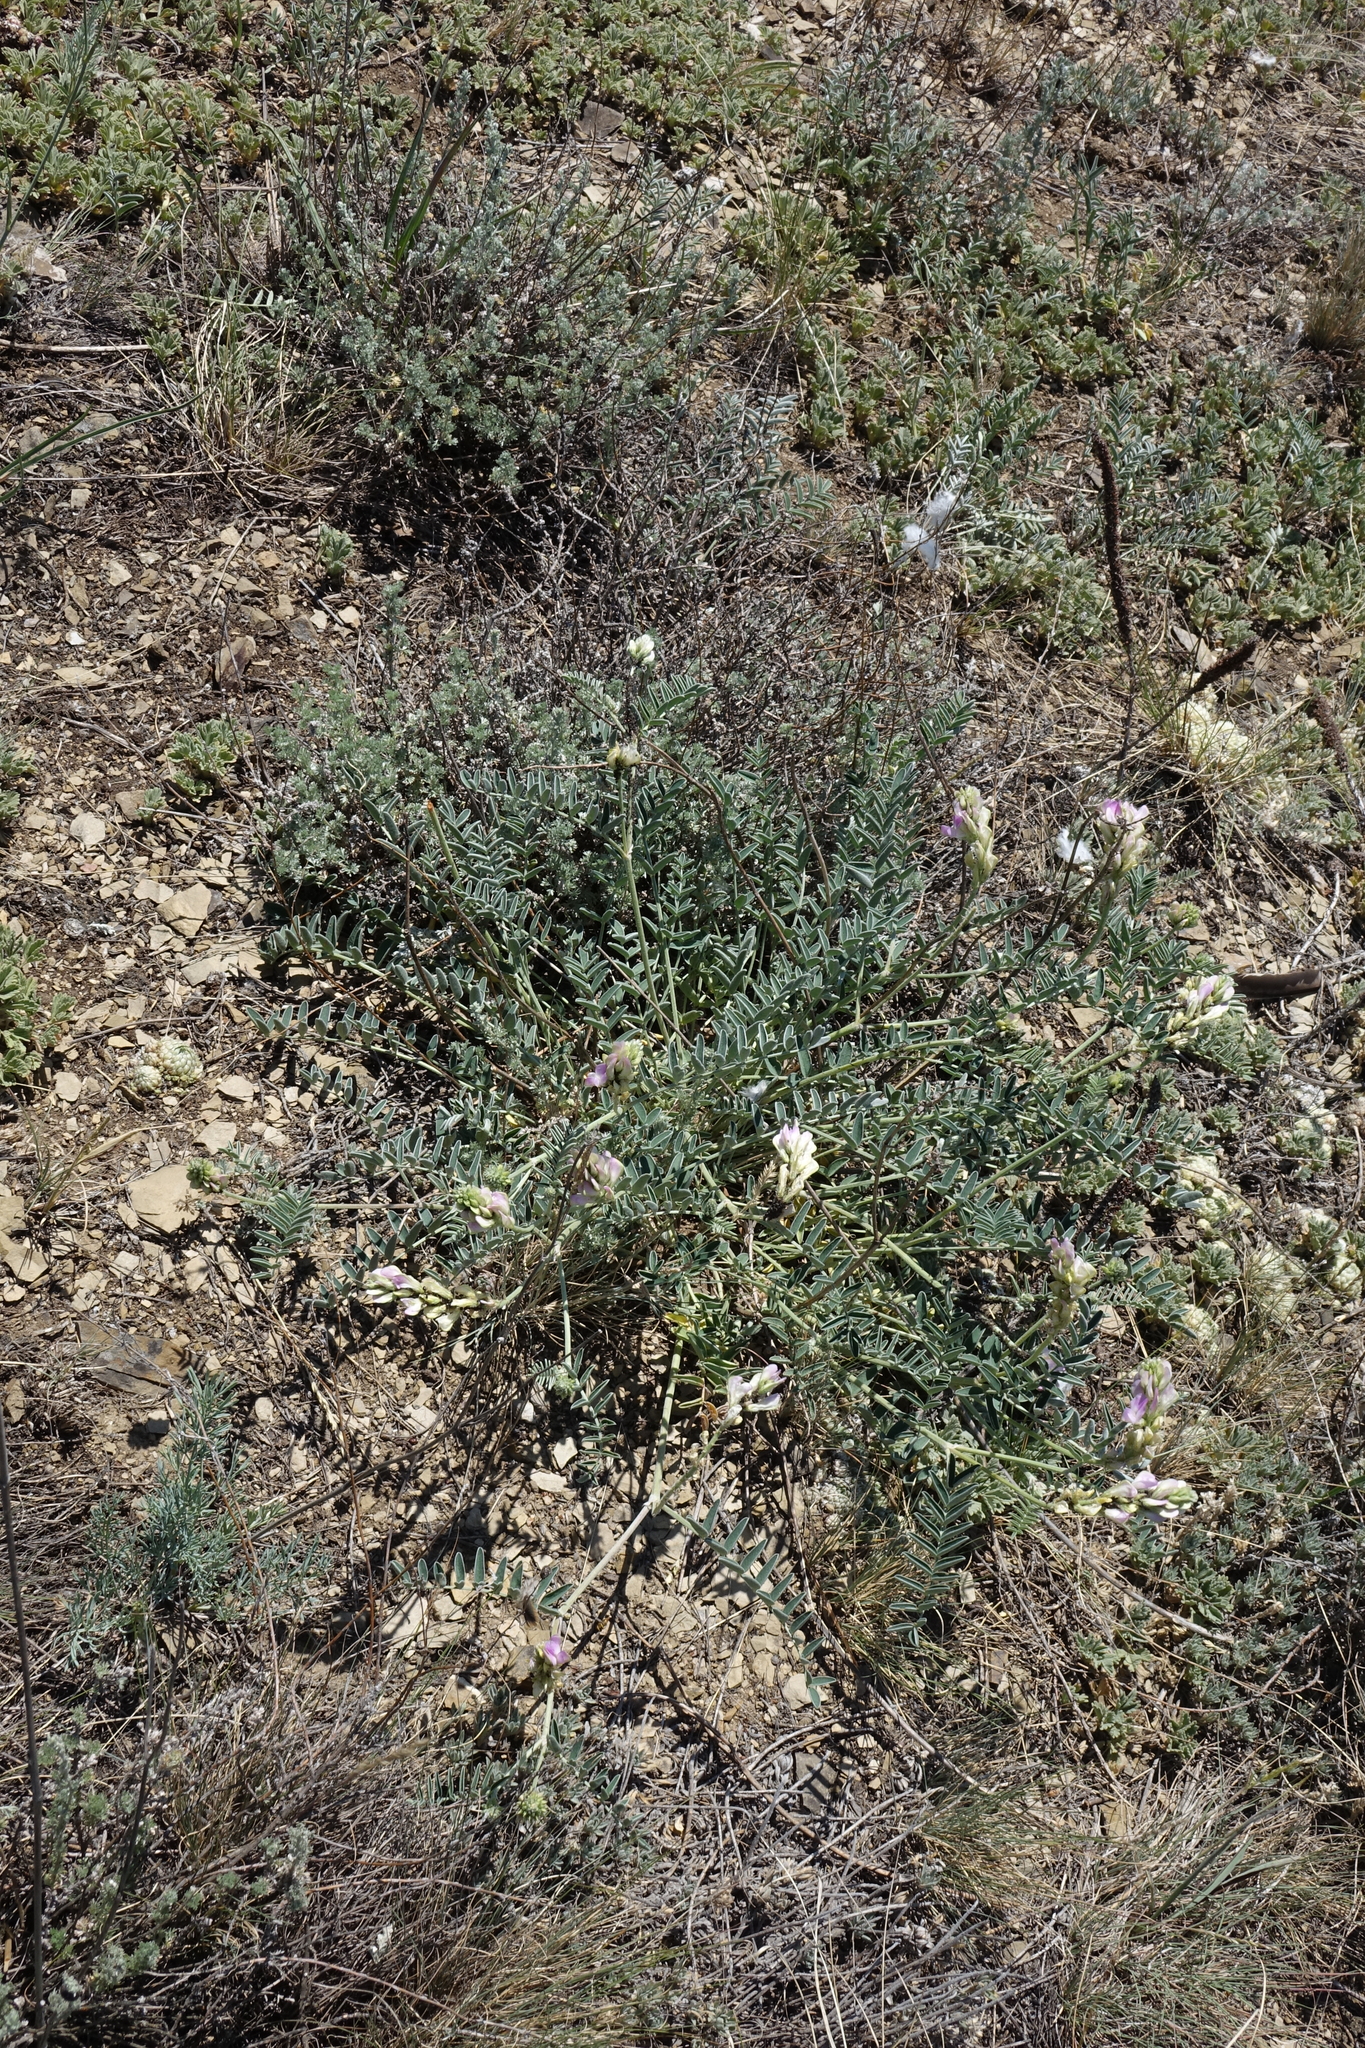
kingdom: Plantae
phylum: Tracheophyta
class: Magnoliopsida
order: Fabales
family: Fabaceae
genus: Hedysarum
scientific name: Hedysarum gmelinii
